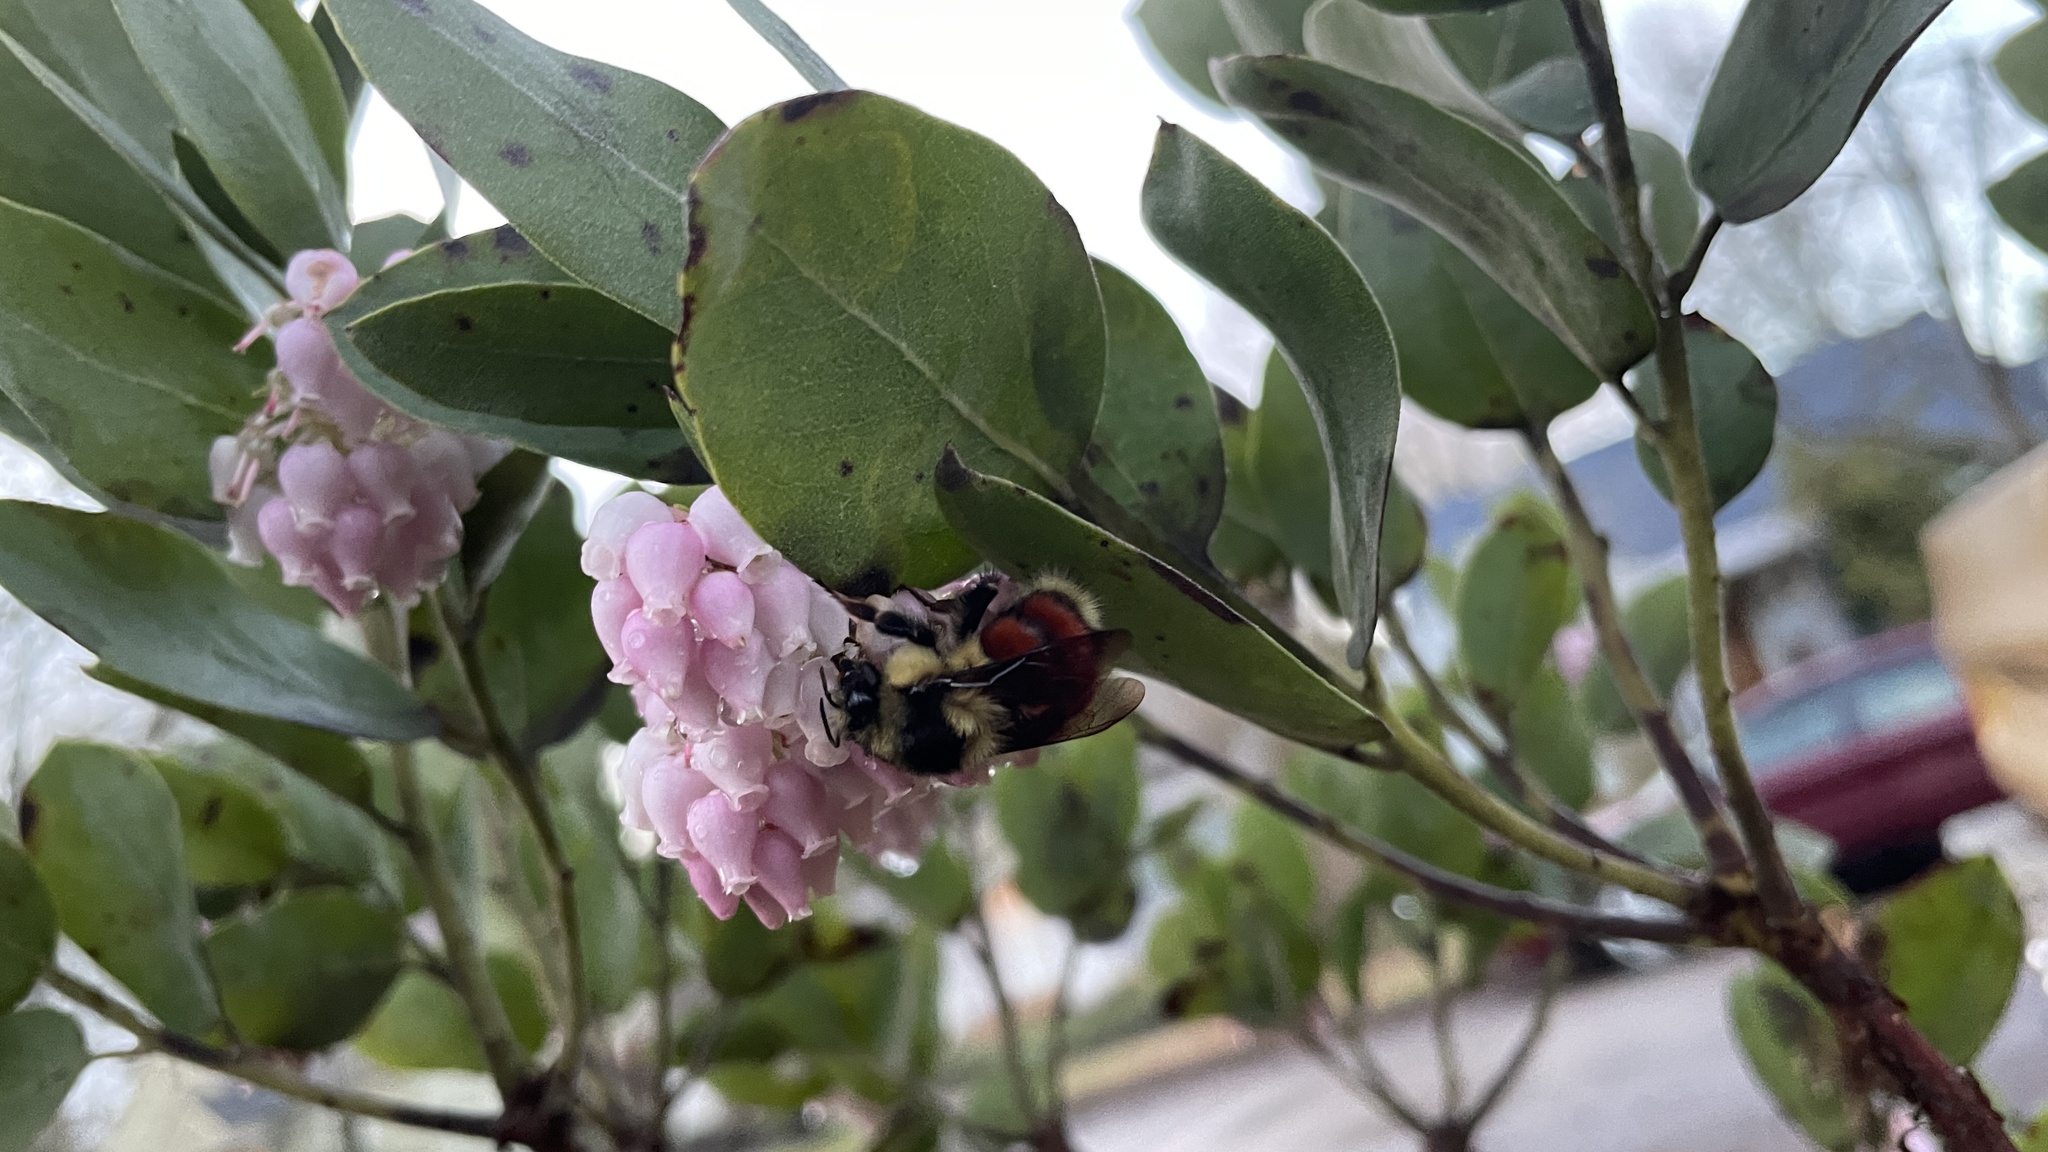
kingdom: Animalia
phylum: Arthropoda
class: Insecta
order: Hymenoptera
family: Apidae
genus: Bombus
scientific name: Bombus melanopygus
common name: Black tail bumble bee
